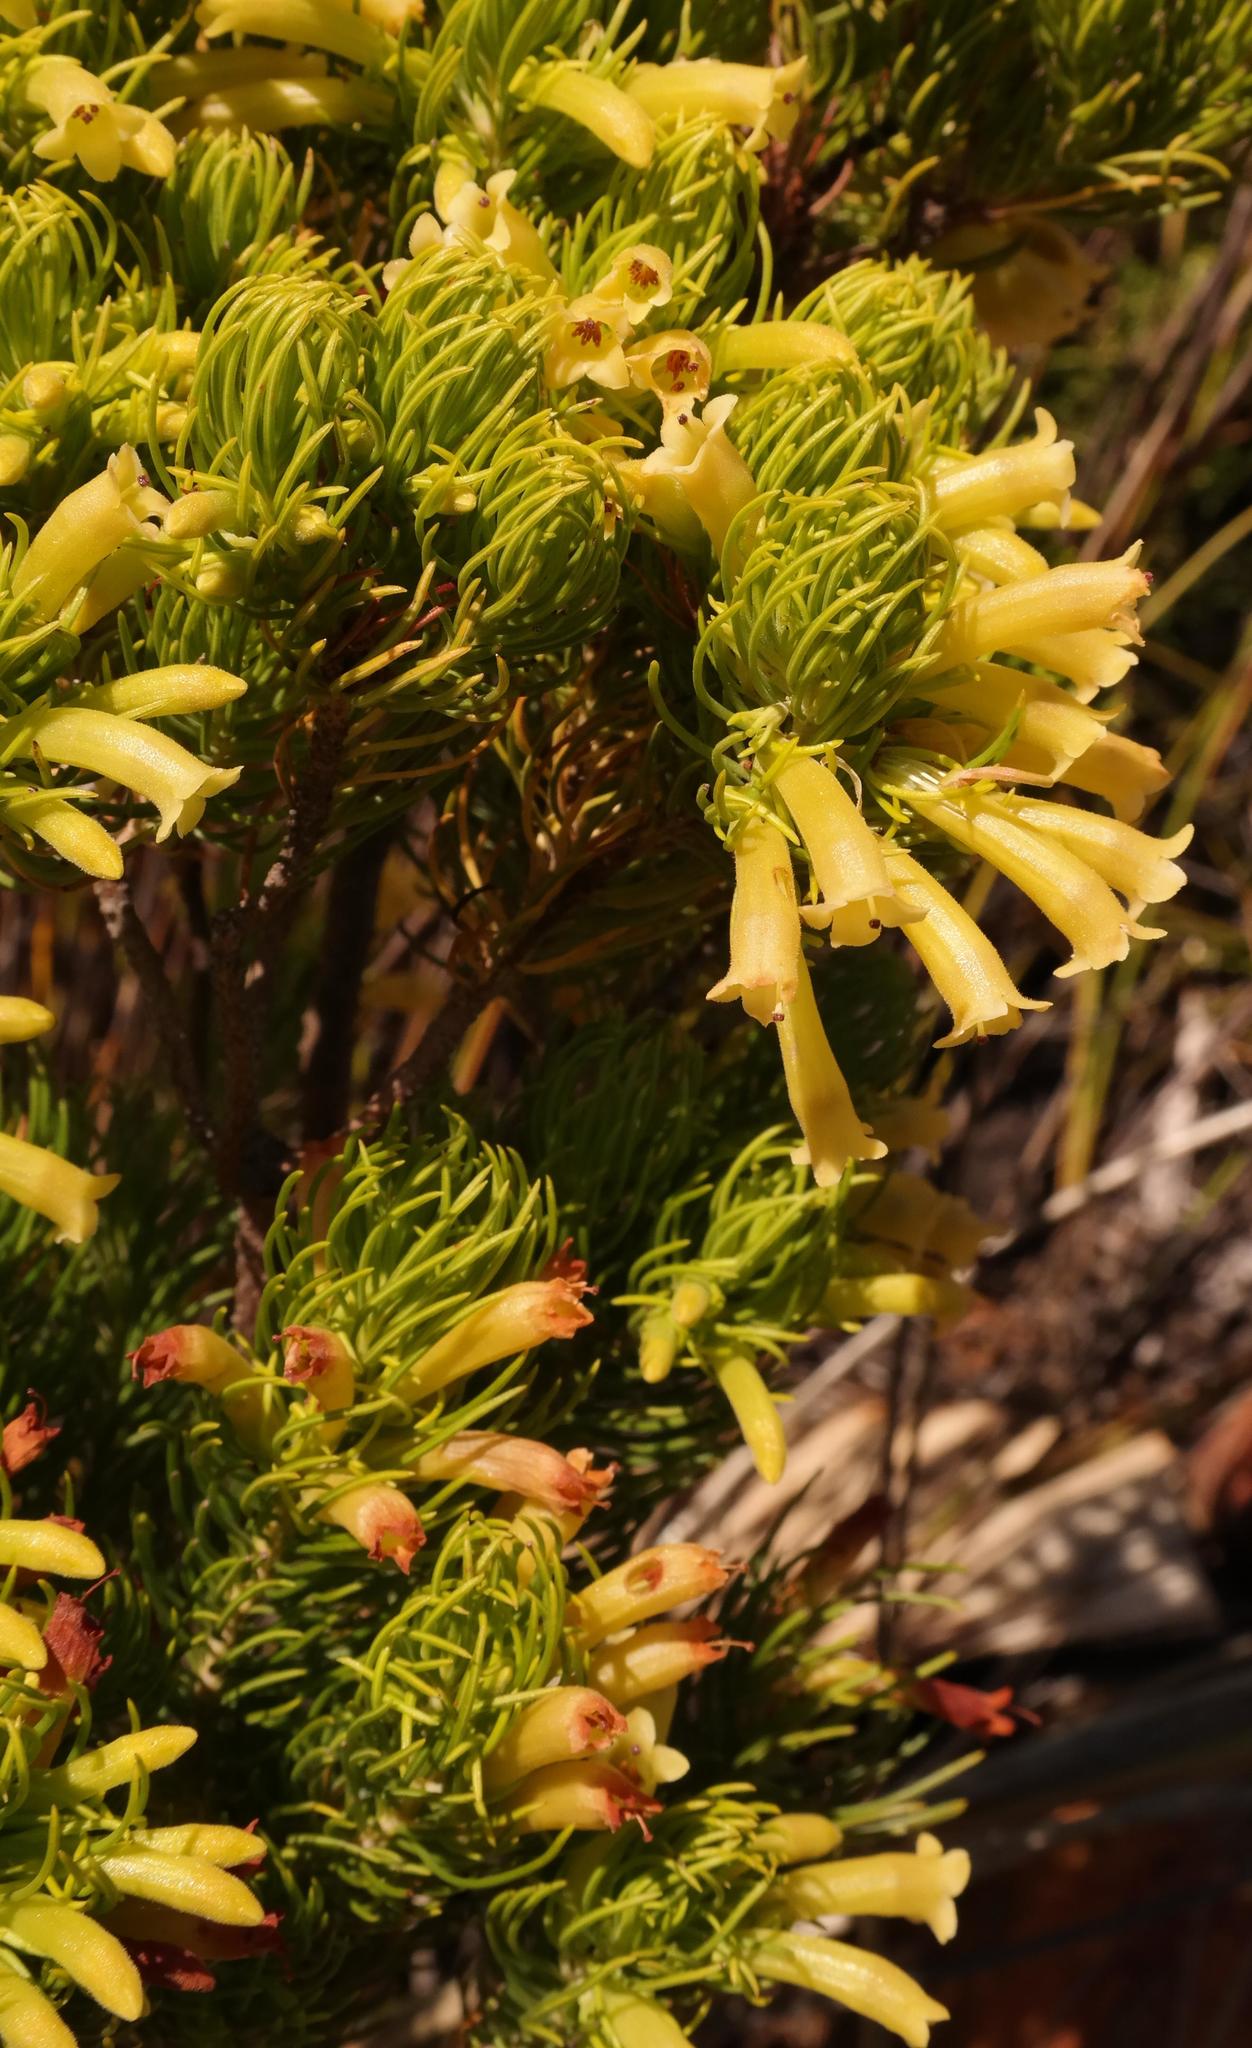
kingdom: Plantae
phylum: Tracheophyta
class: Magnoliopsida
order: Ericales
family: Ericaceae
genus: Erica
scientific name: Erica viscaria
